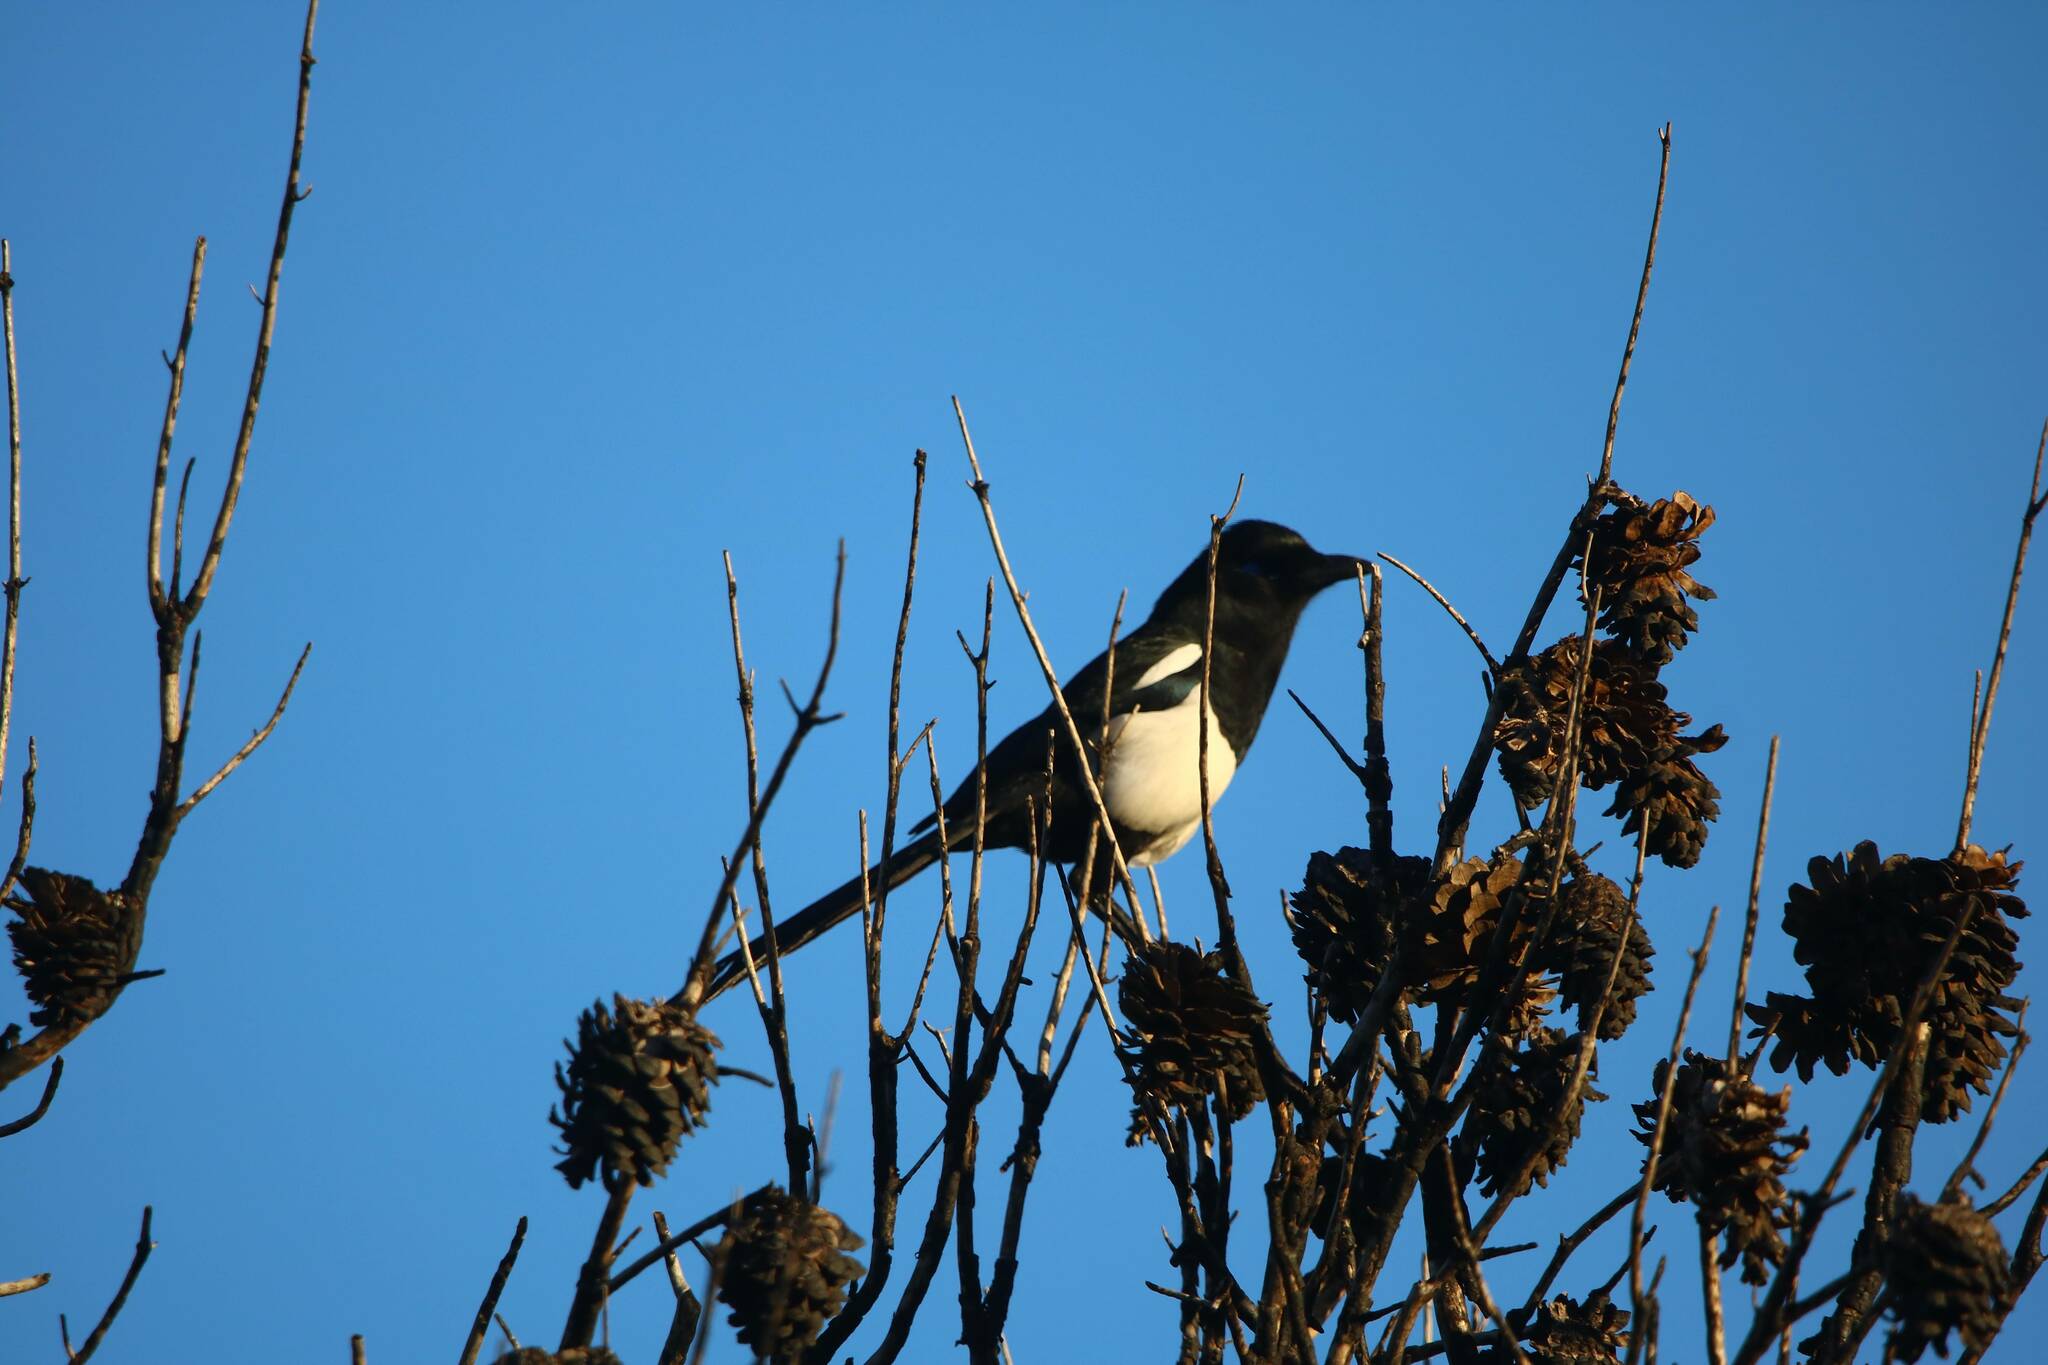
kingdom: Animalia
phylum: Chordata
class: Aves
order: Passeriformes
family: Corvidae
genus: Pica
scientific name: Pica mauritanica
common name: Maghreb magpie
